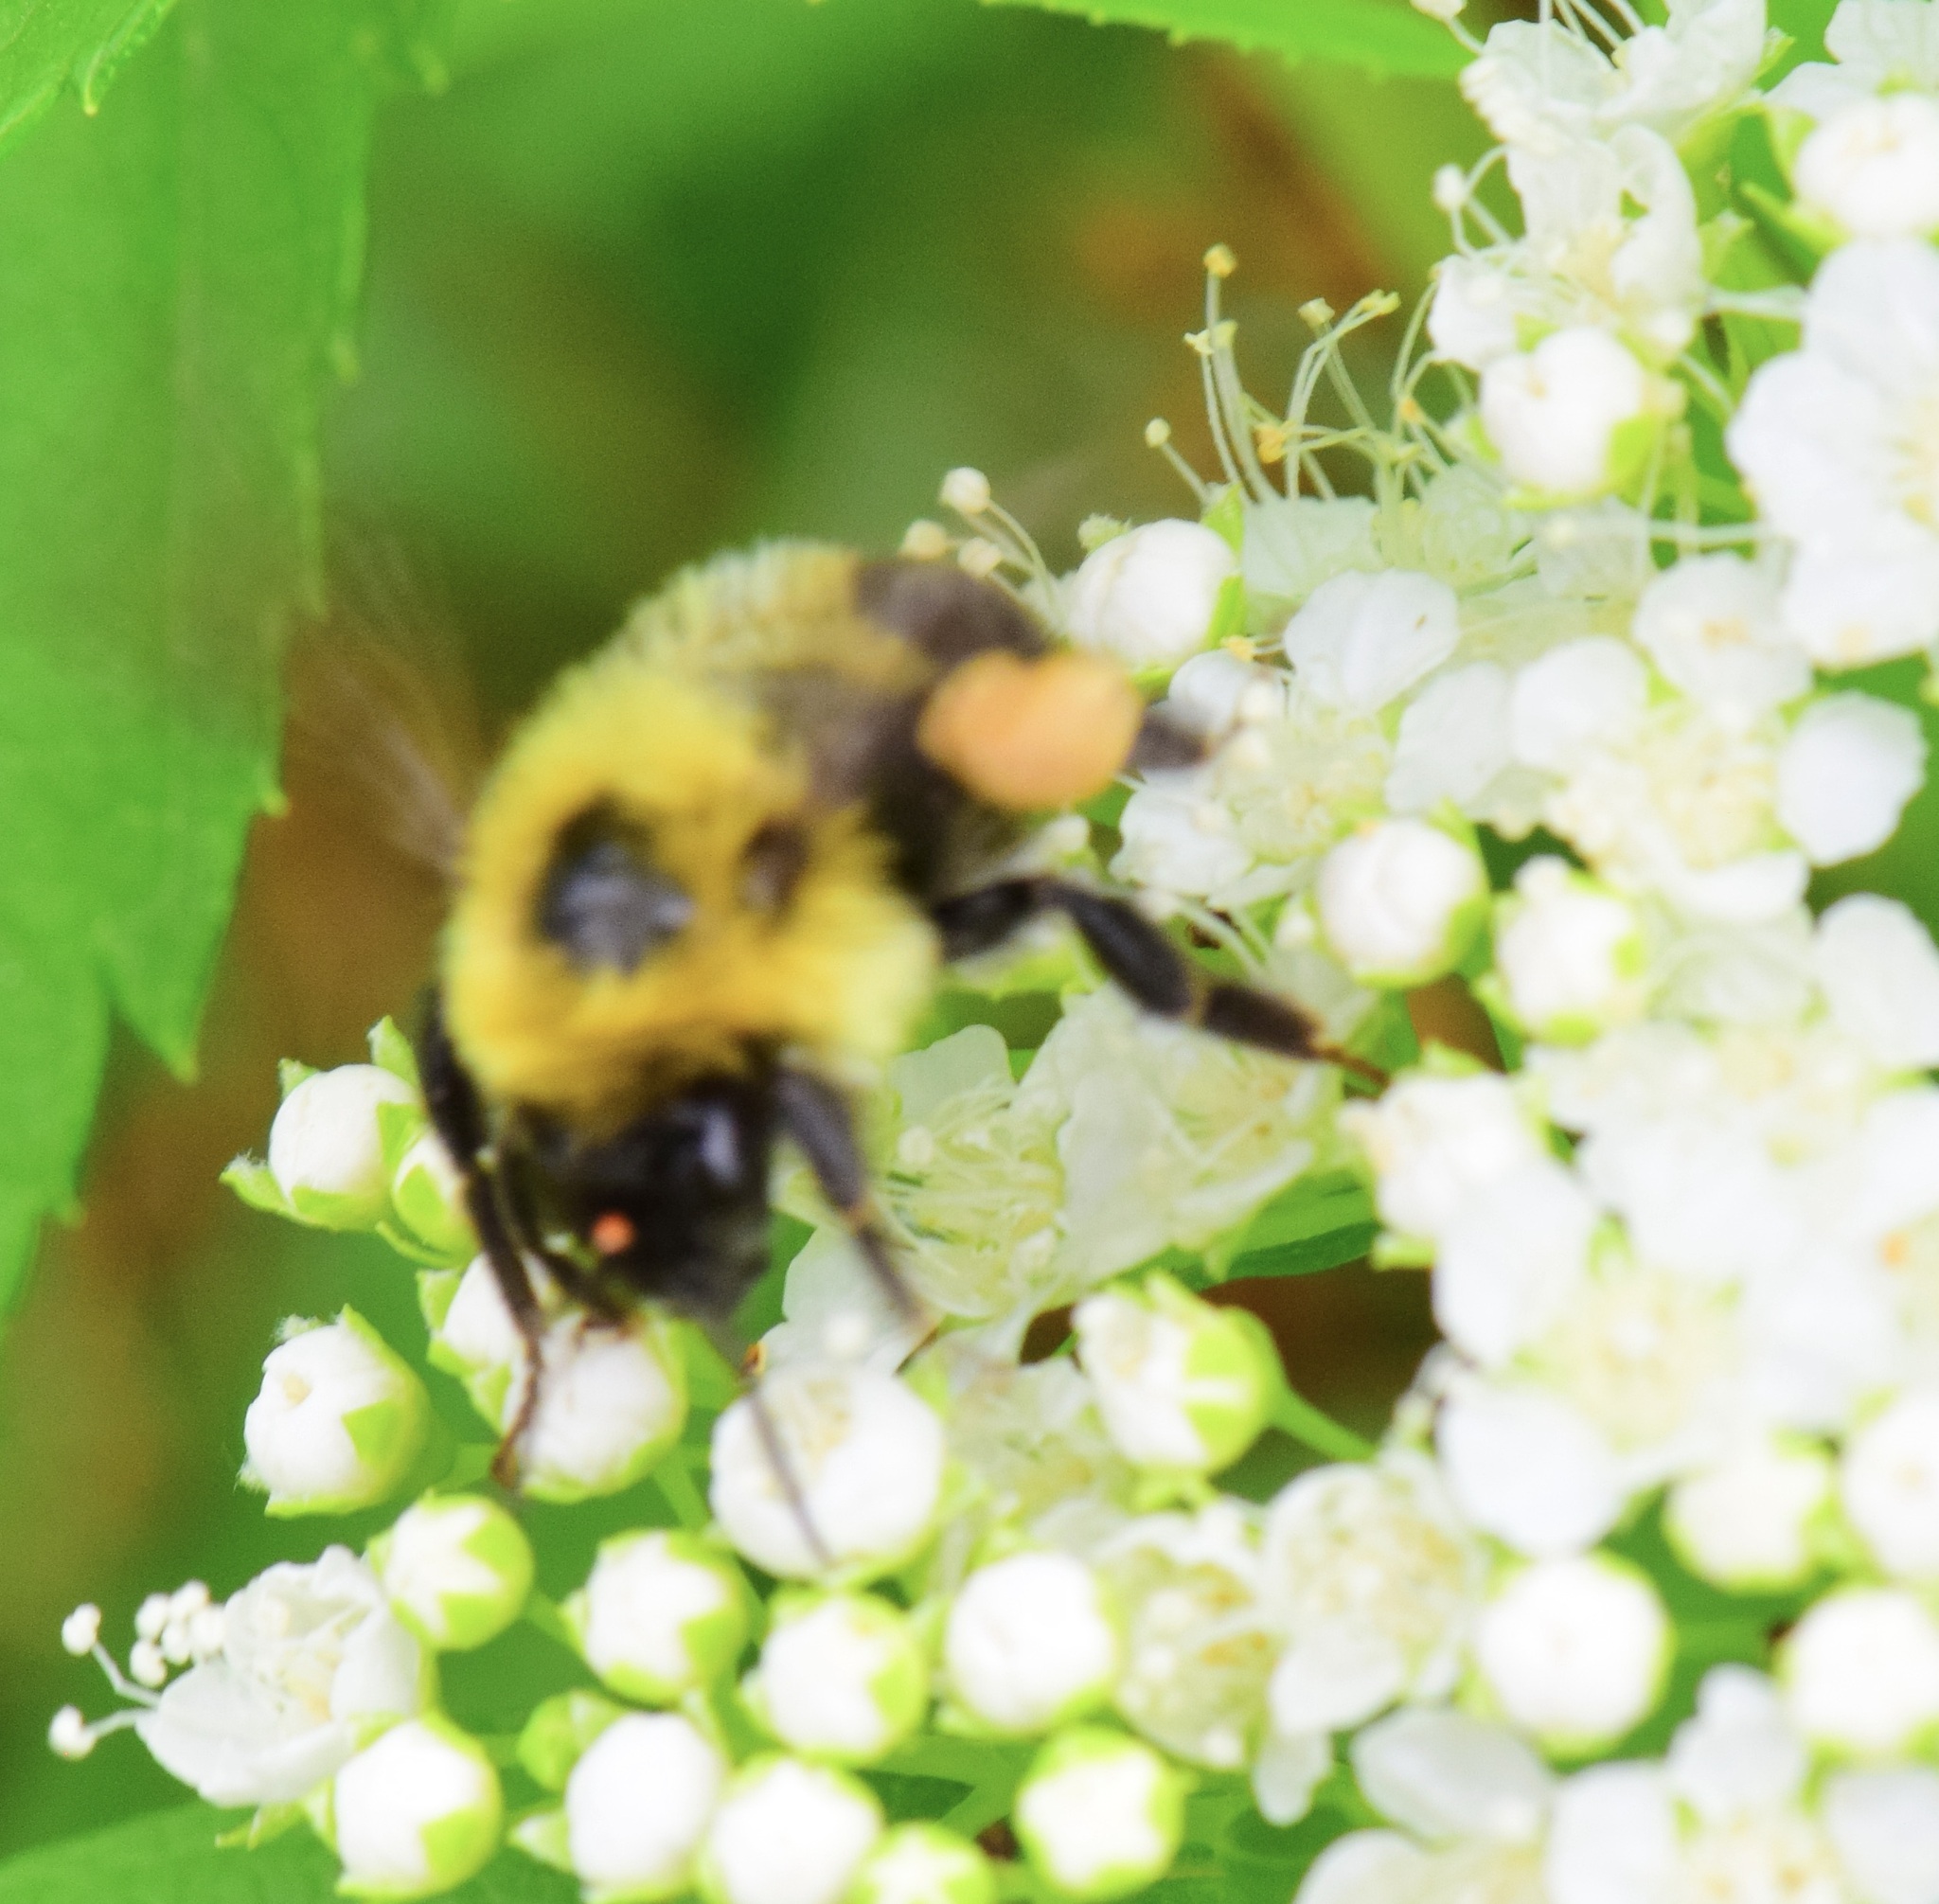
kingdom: Animalia
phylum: Arthropoda
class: Insecta
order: Hymenoptera
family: Apidae
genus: Bombus
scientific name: Bombus bimaculatus
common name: Two-spotted bumble bee
